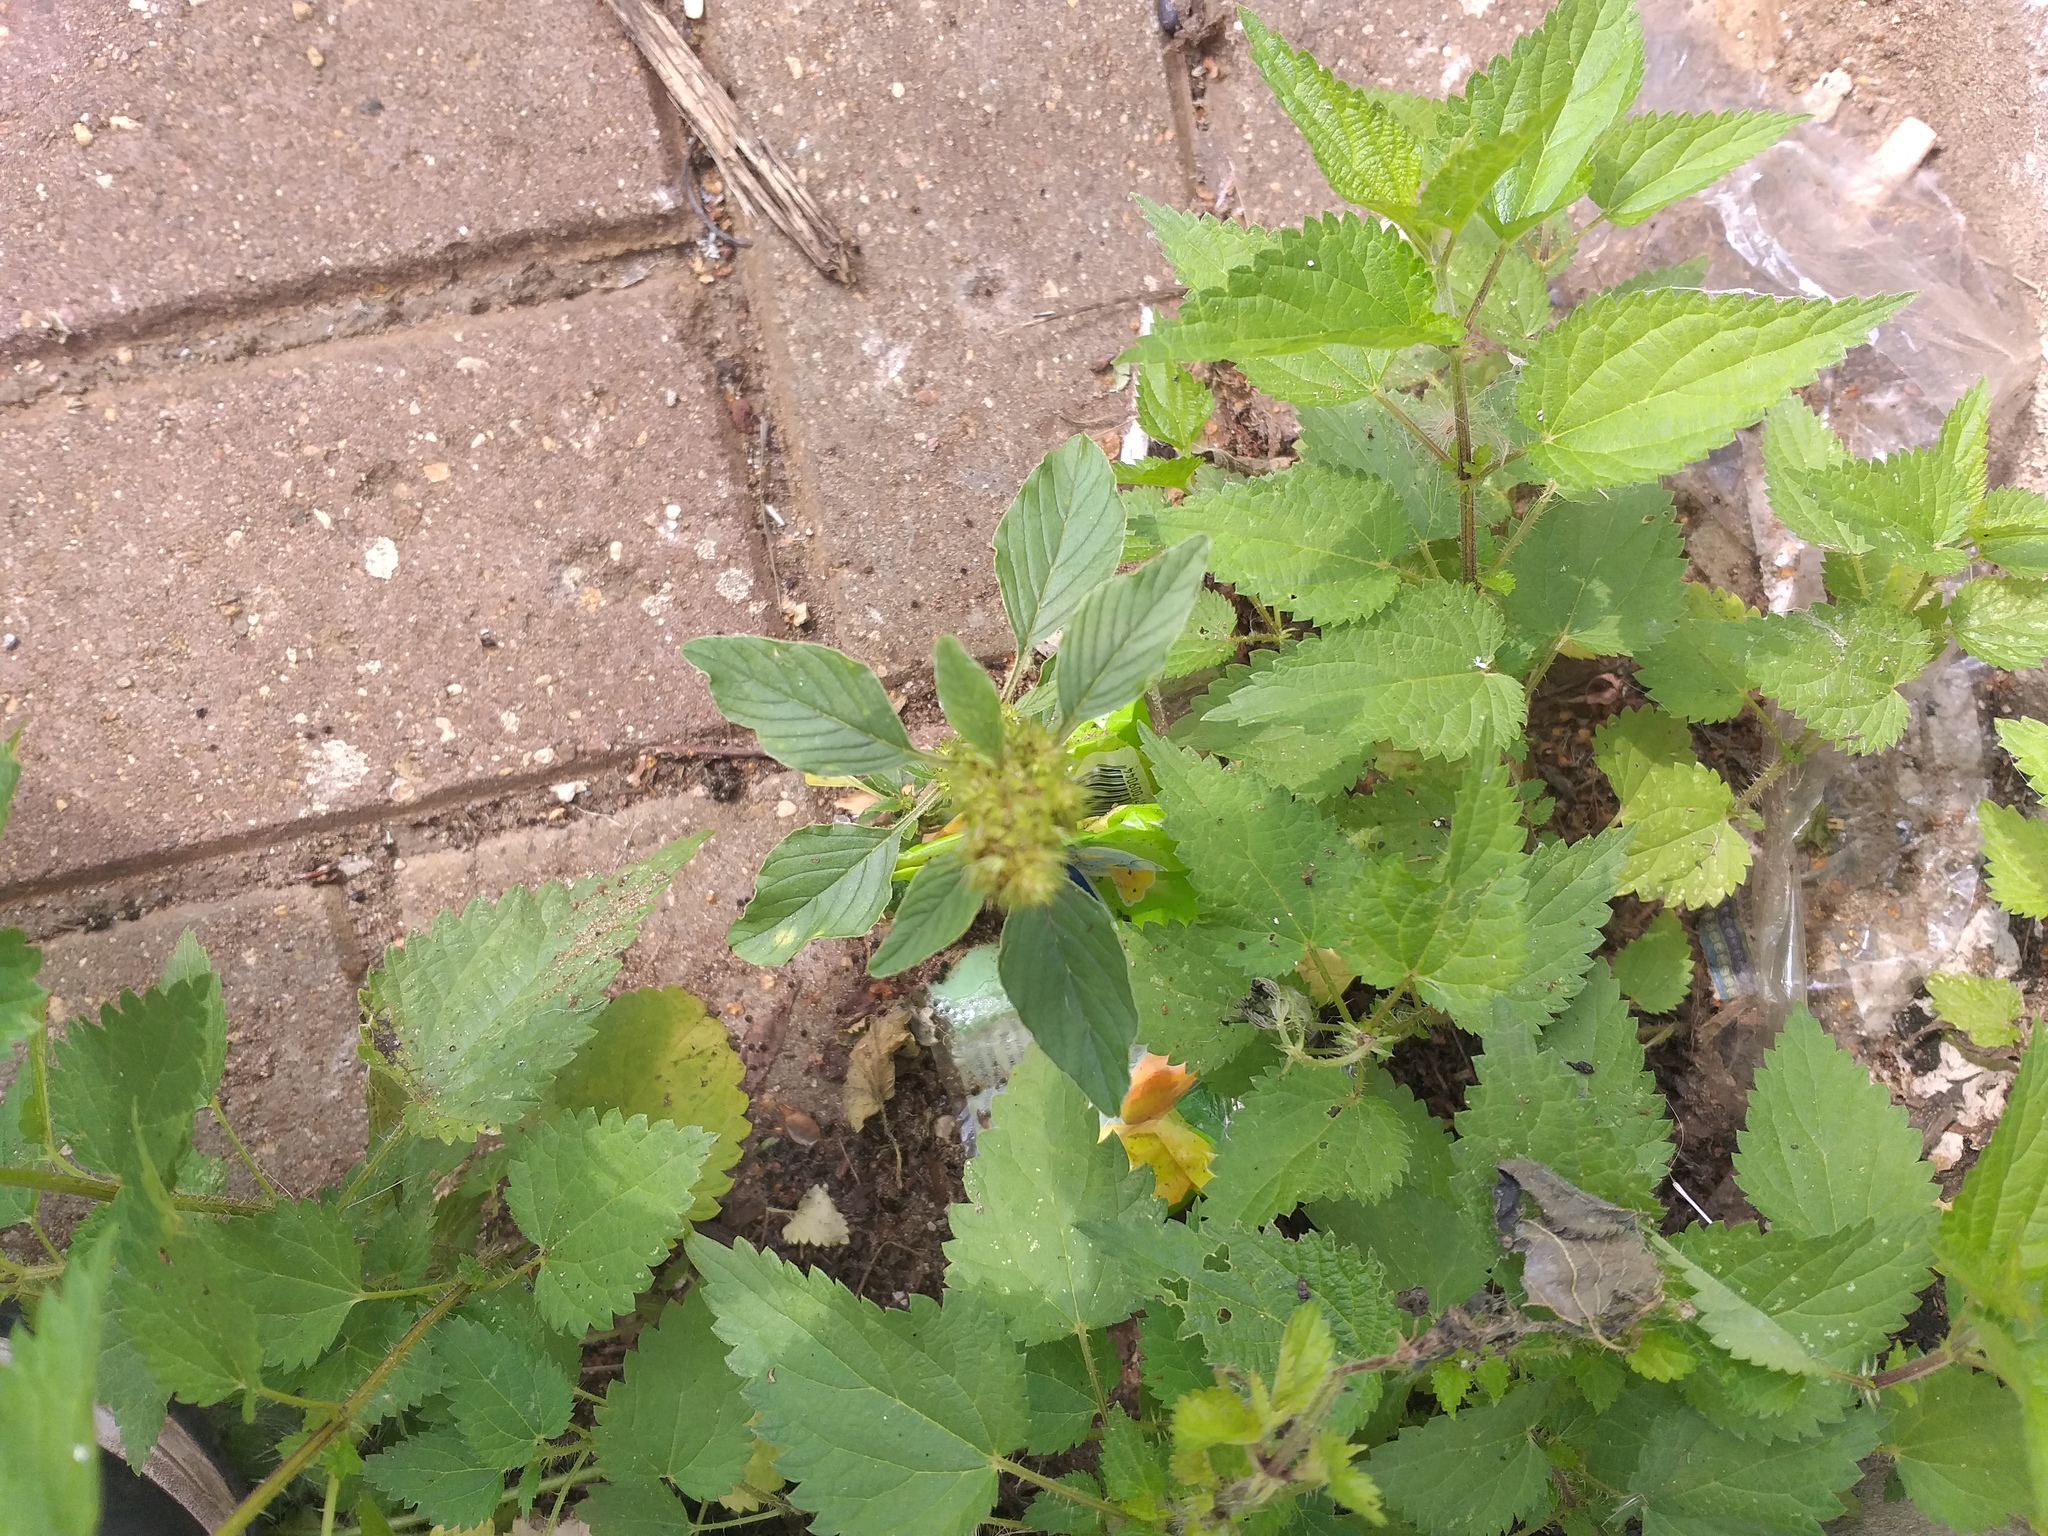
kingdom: Plantae
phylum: Tracheophyta
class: Magnoliopsida
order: Caryophyllales
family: Amaranthaceae
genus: Amaranthus
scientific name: Amaranthus retroflexus
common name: Redroot amaranth
